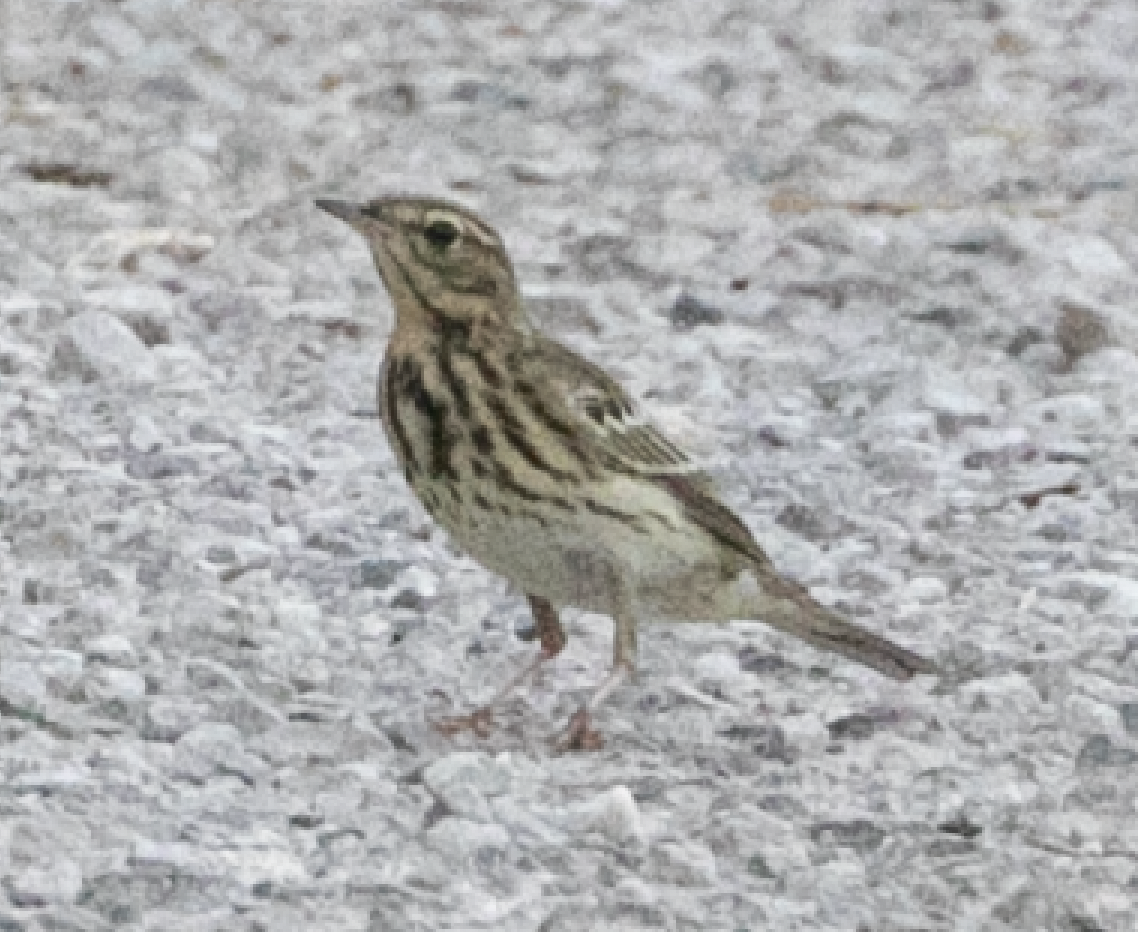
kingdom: Animalia
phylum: Chordata
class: Aves
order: Passeriformes
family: Motacillidae
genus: Anthus
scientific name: Anthus trivialis
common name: Tree pipit
